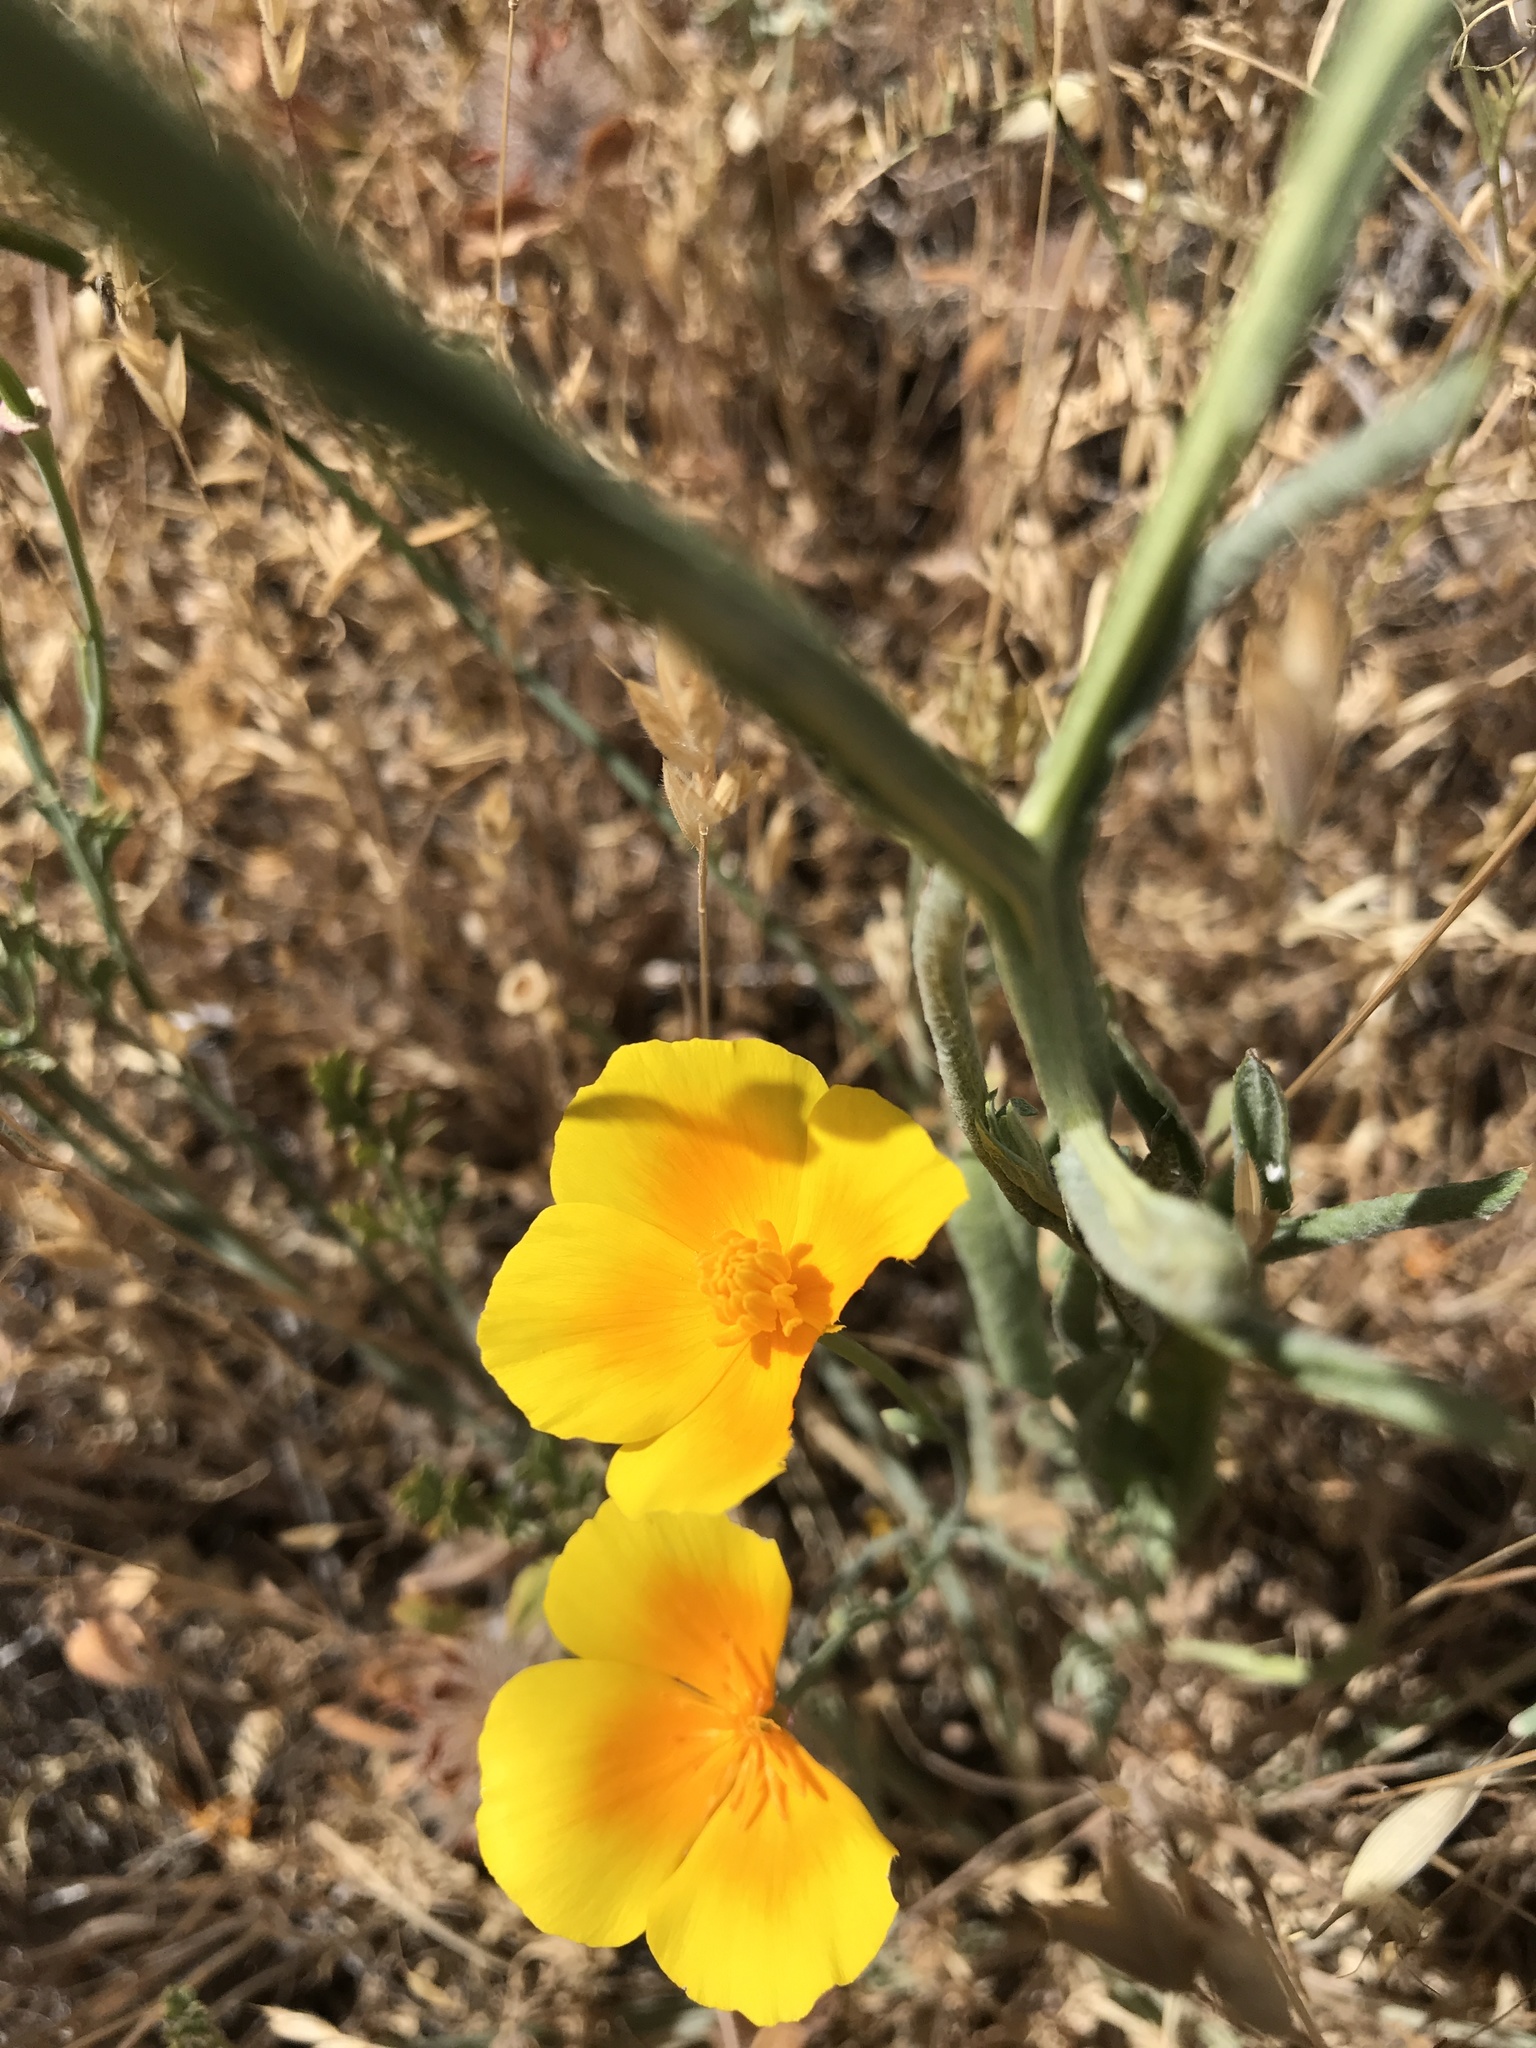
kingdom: Plantae
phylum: Tracheophyta
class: Magnoliopsida
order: Ranunculales
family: Papaveraceae
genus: Eschscholzia
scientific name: Eschscholzia californica
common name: California poppy
